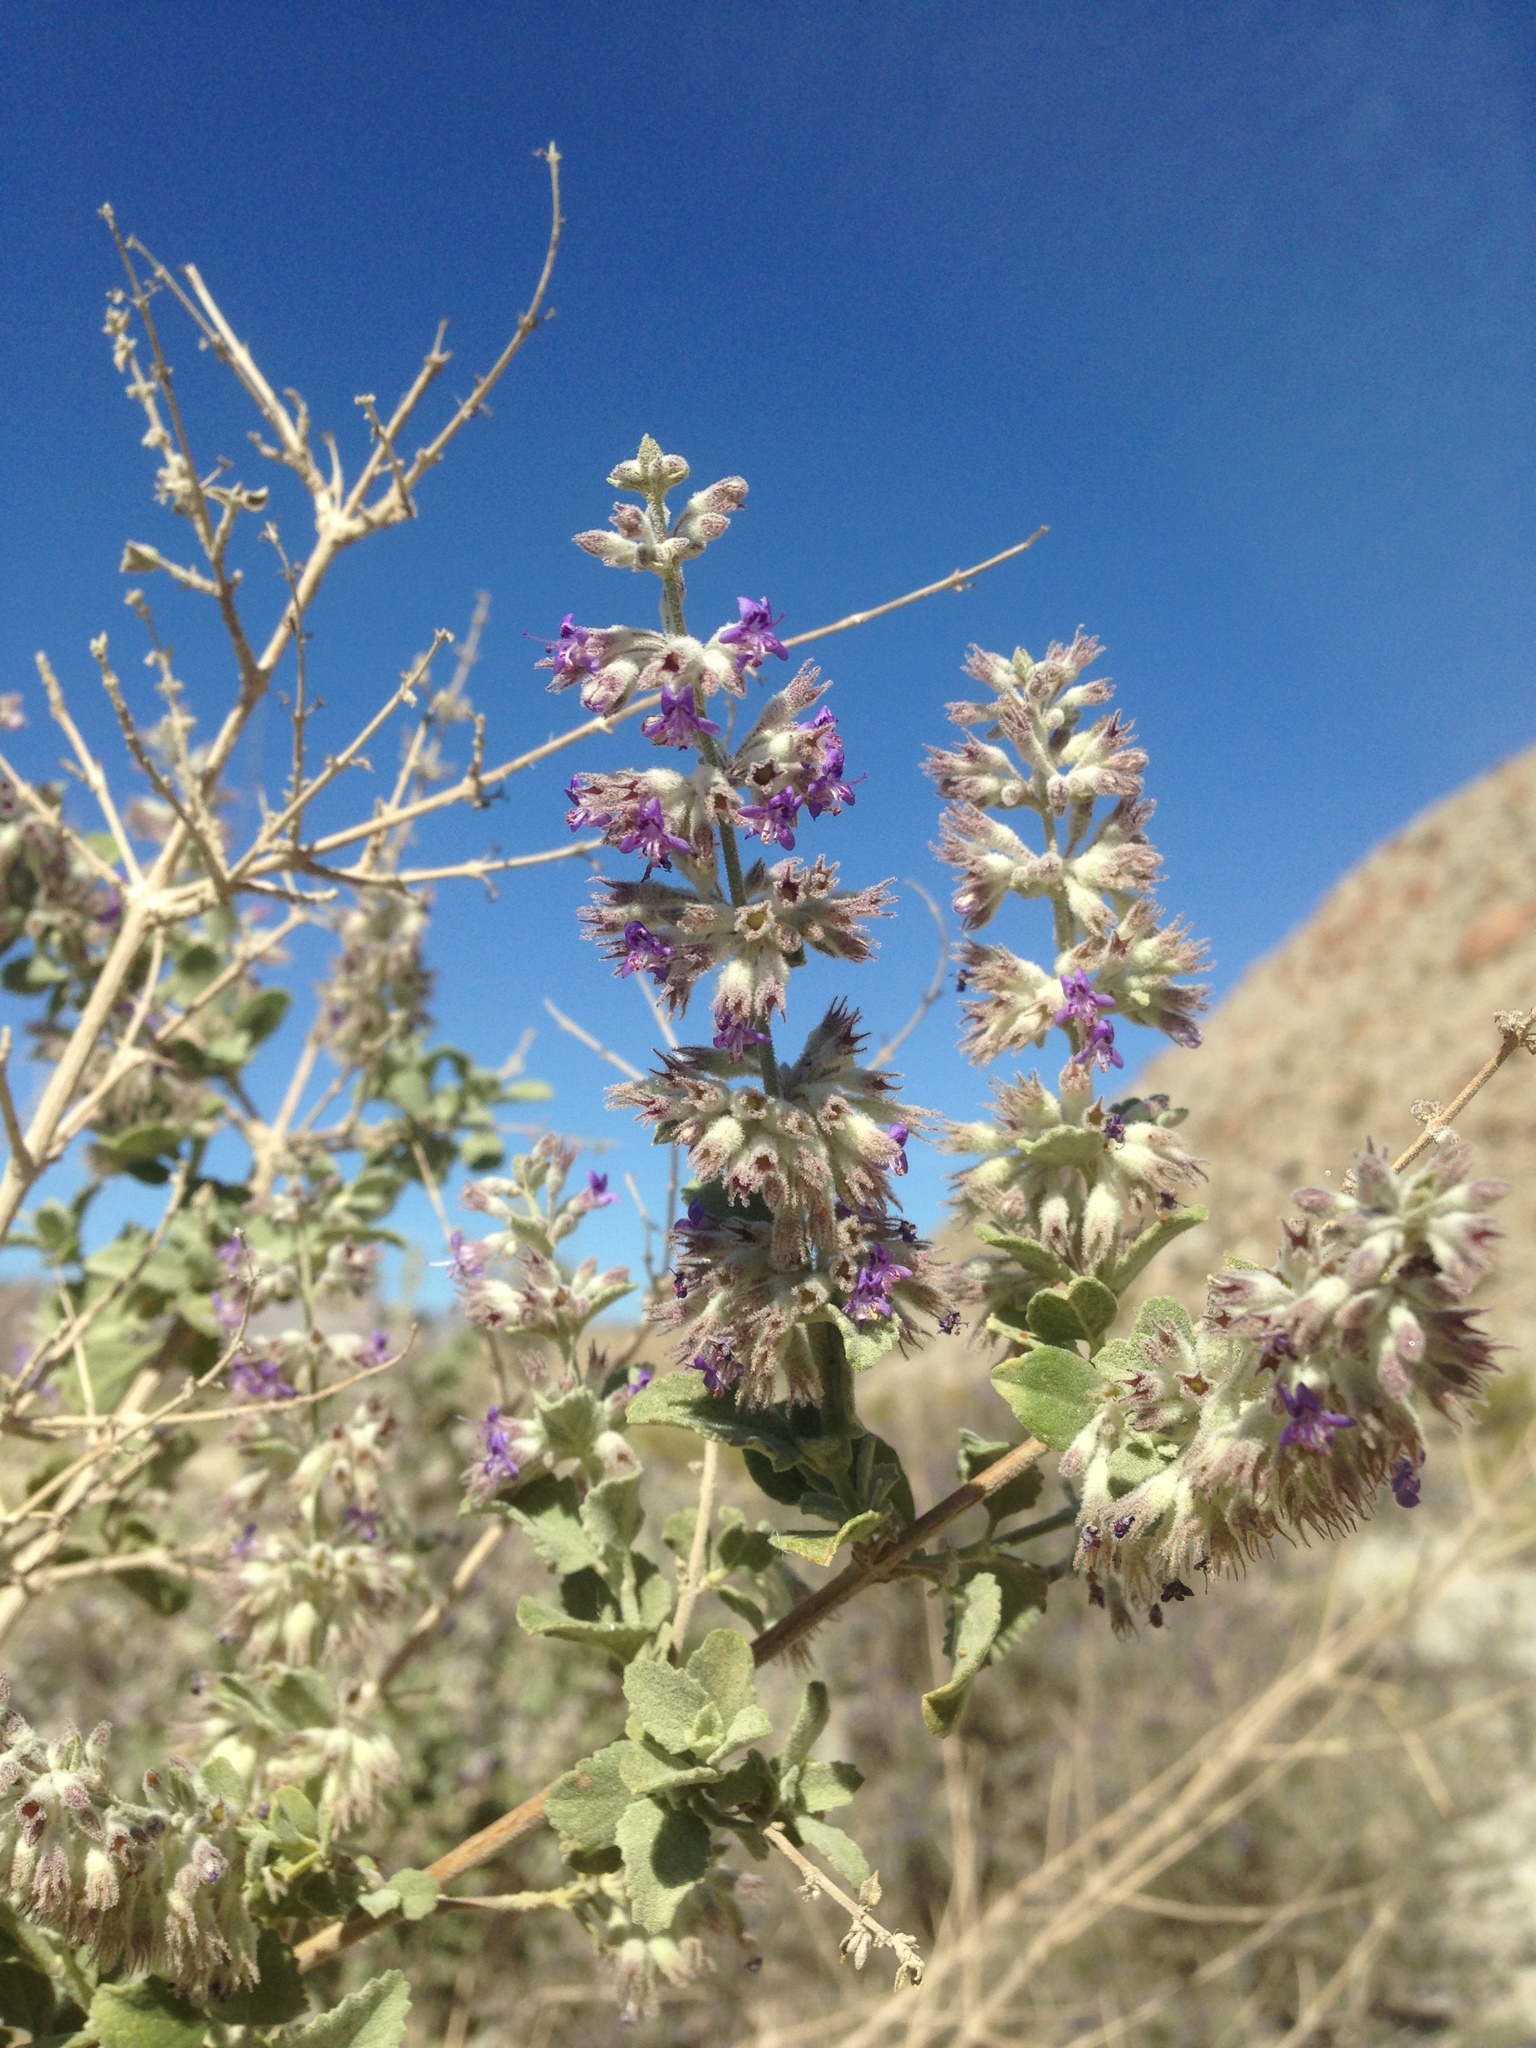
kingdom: Plantae
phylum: Tracheophyta
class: Magnoliopsida
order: Lamiales
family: Lamiaceae
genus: Condea
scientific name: Condea emoryi
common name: Chia
